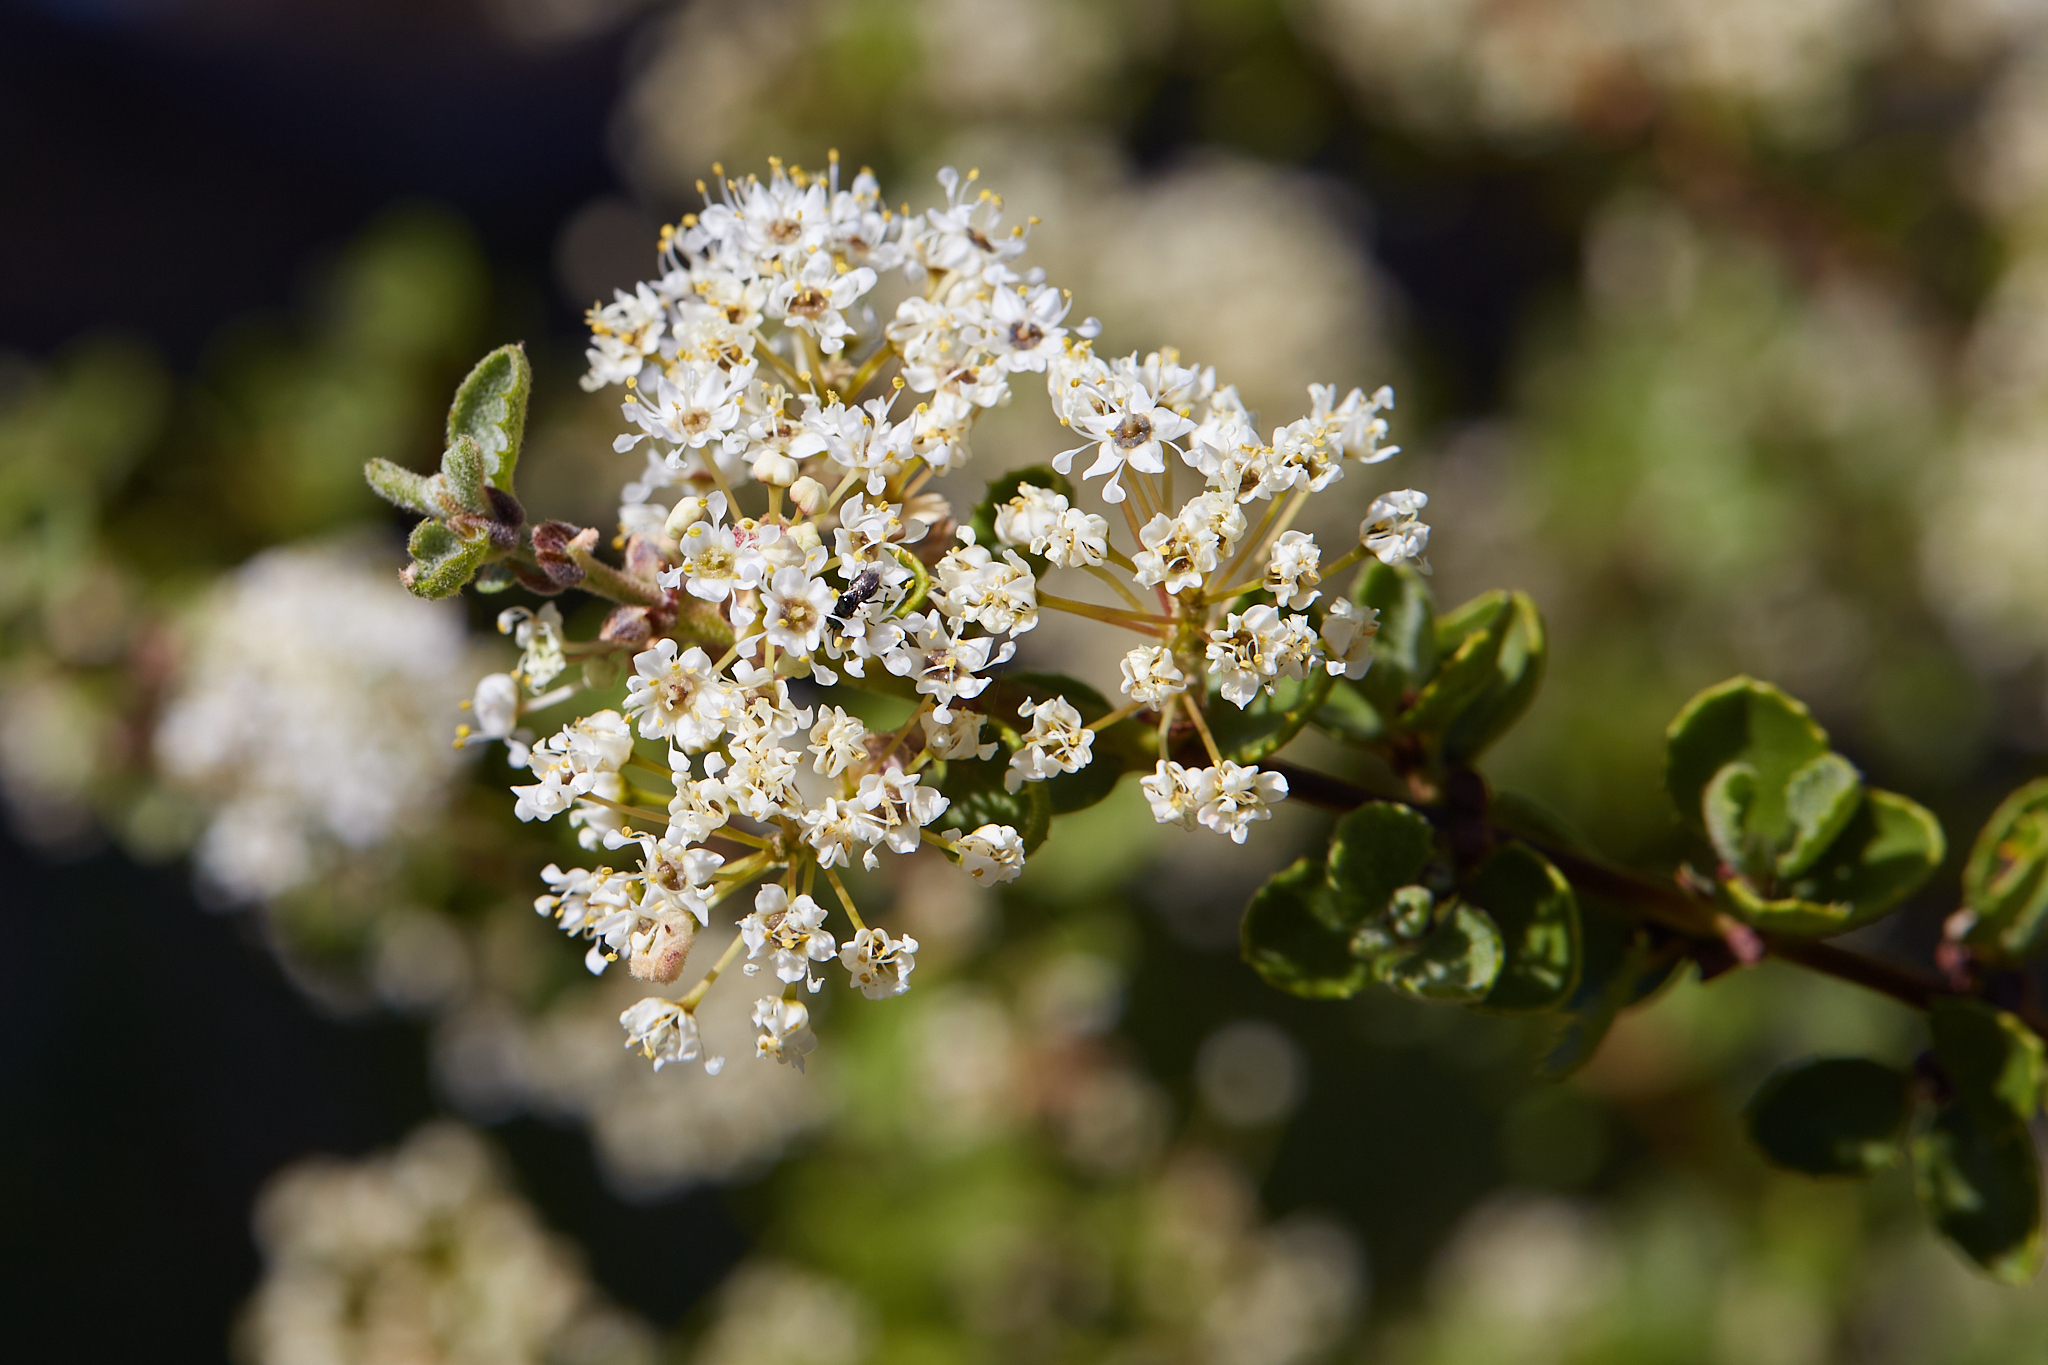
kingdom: Plantae
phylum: Tracheophyta
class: Magnoliopsida
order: Rosales
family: Rhamnaceae
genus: Ceanothus
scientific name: Ceanothus perplexans
